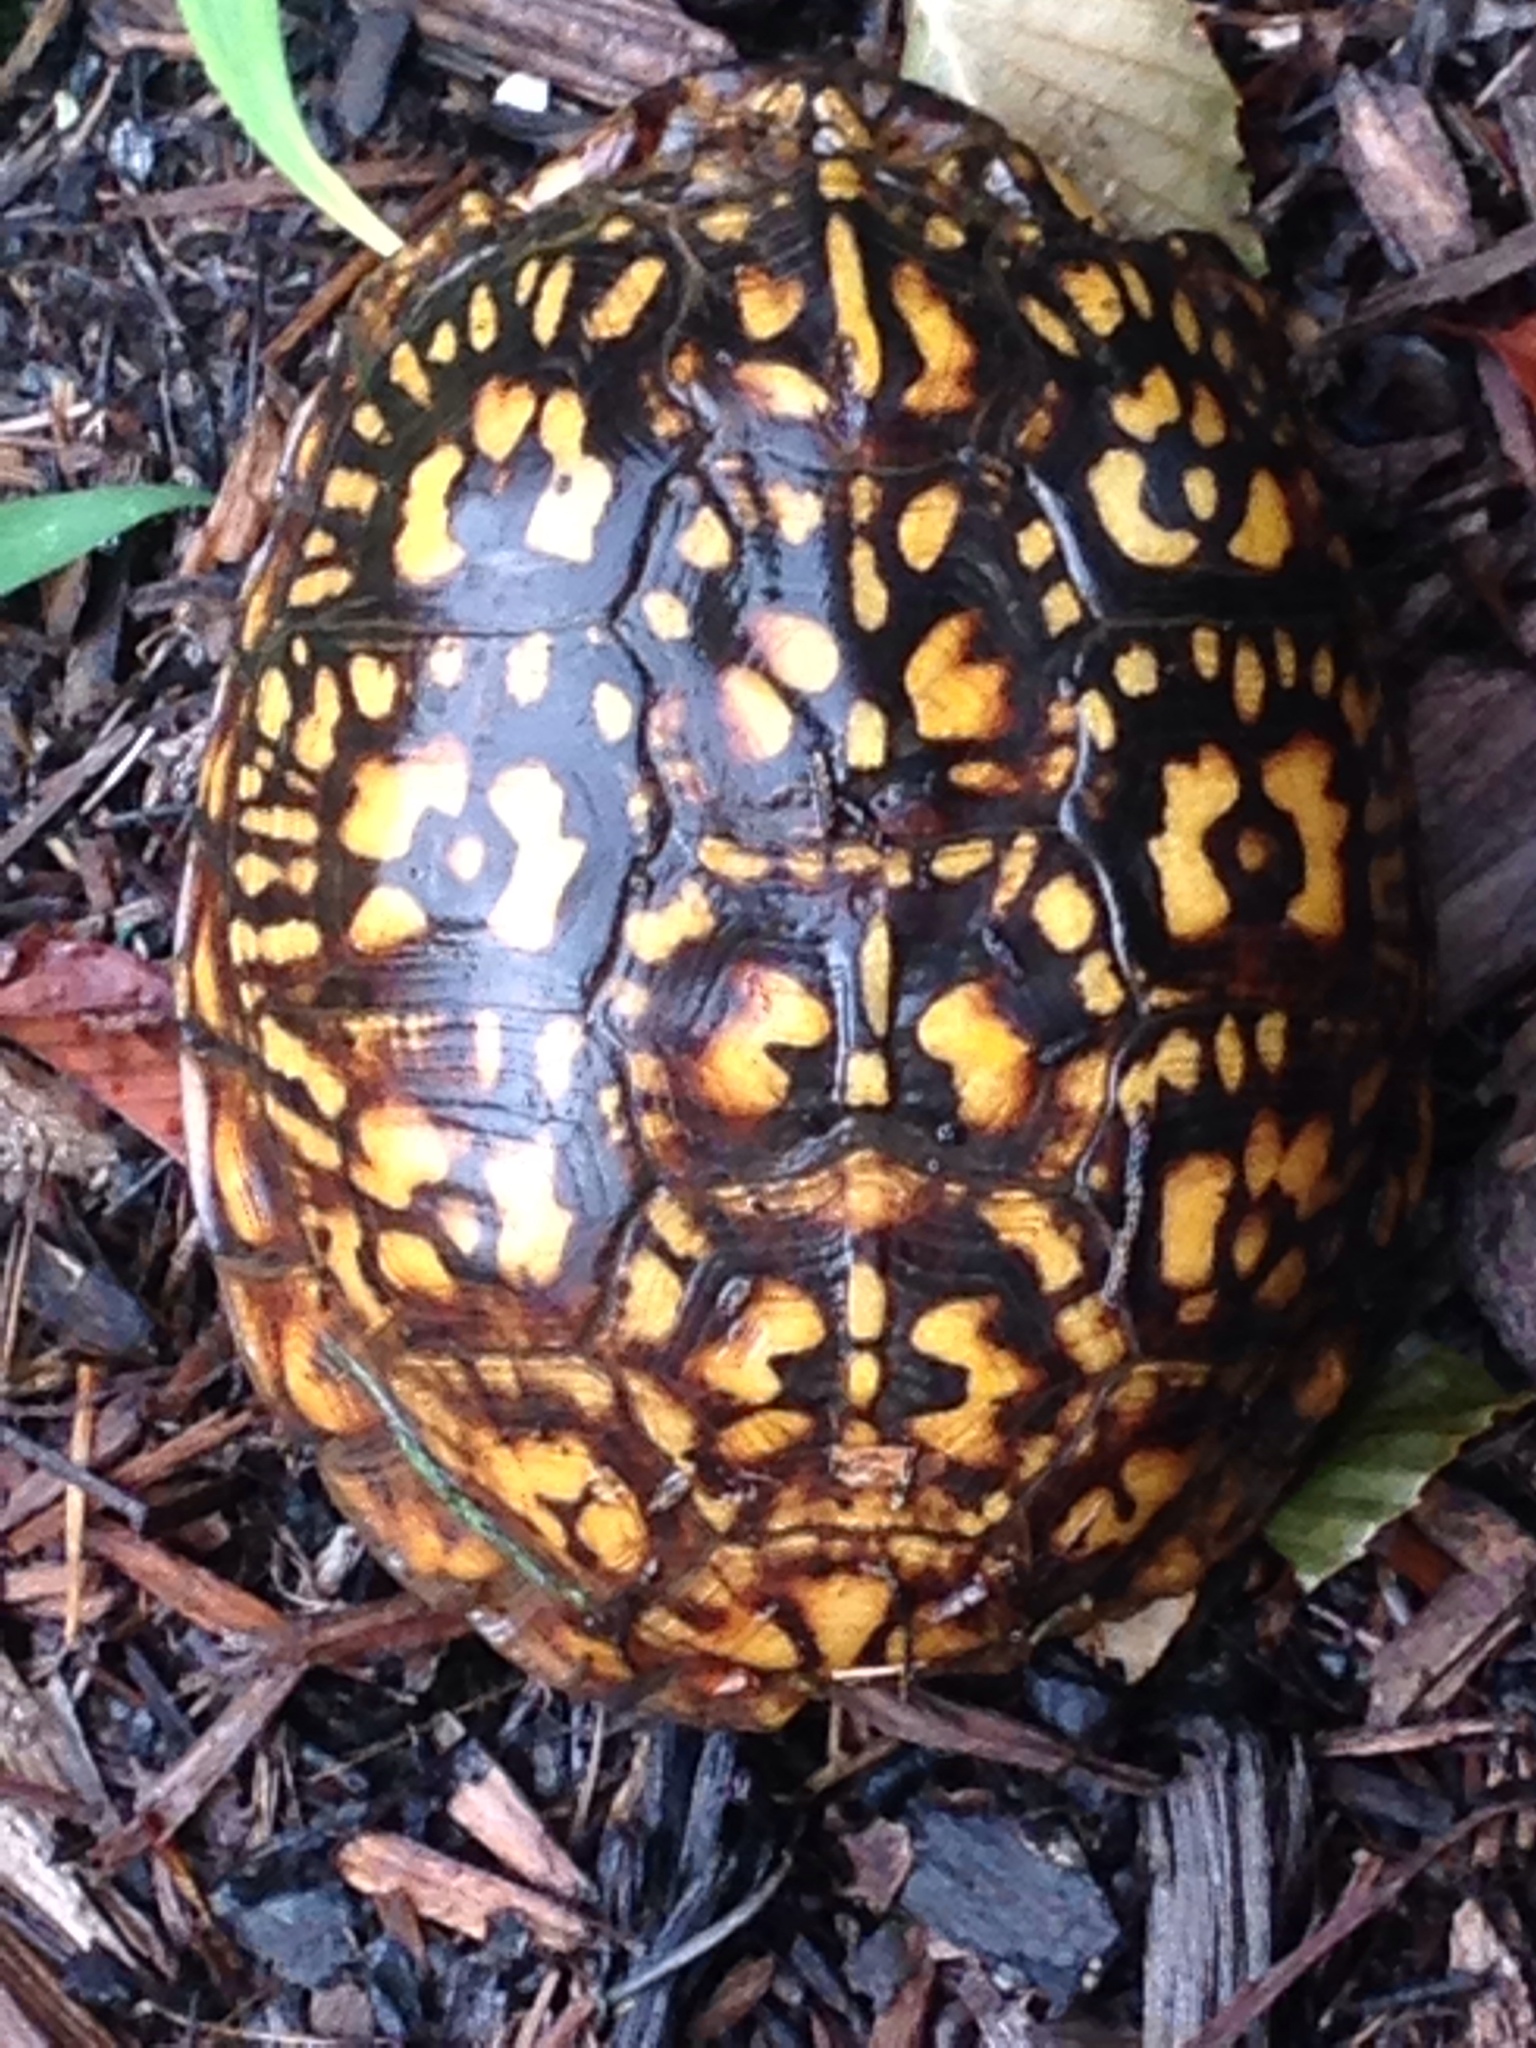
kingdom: Animalia
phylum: Chordata
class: Testudines
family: Emydidae
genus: Terrapene
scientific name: Terrapene carolina
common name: Common box turtle
